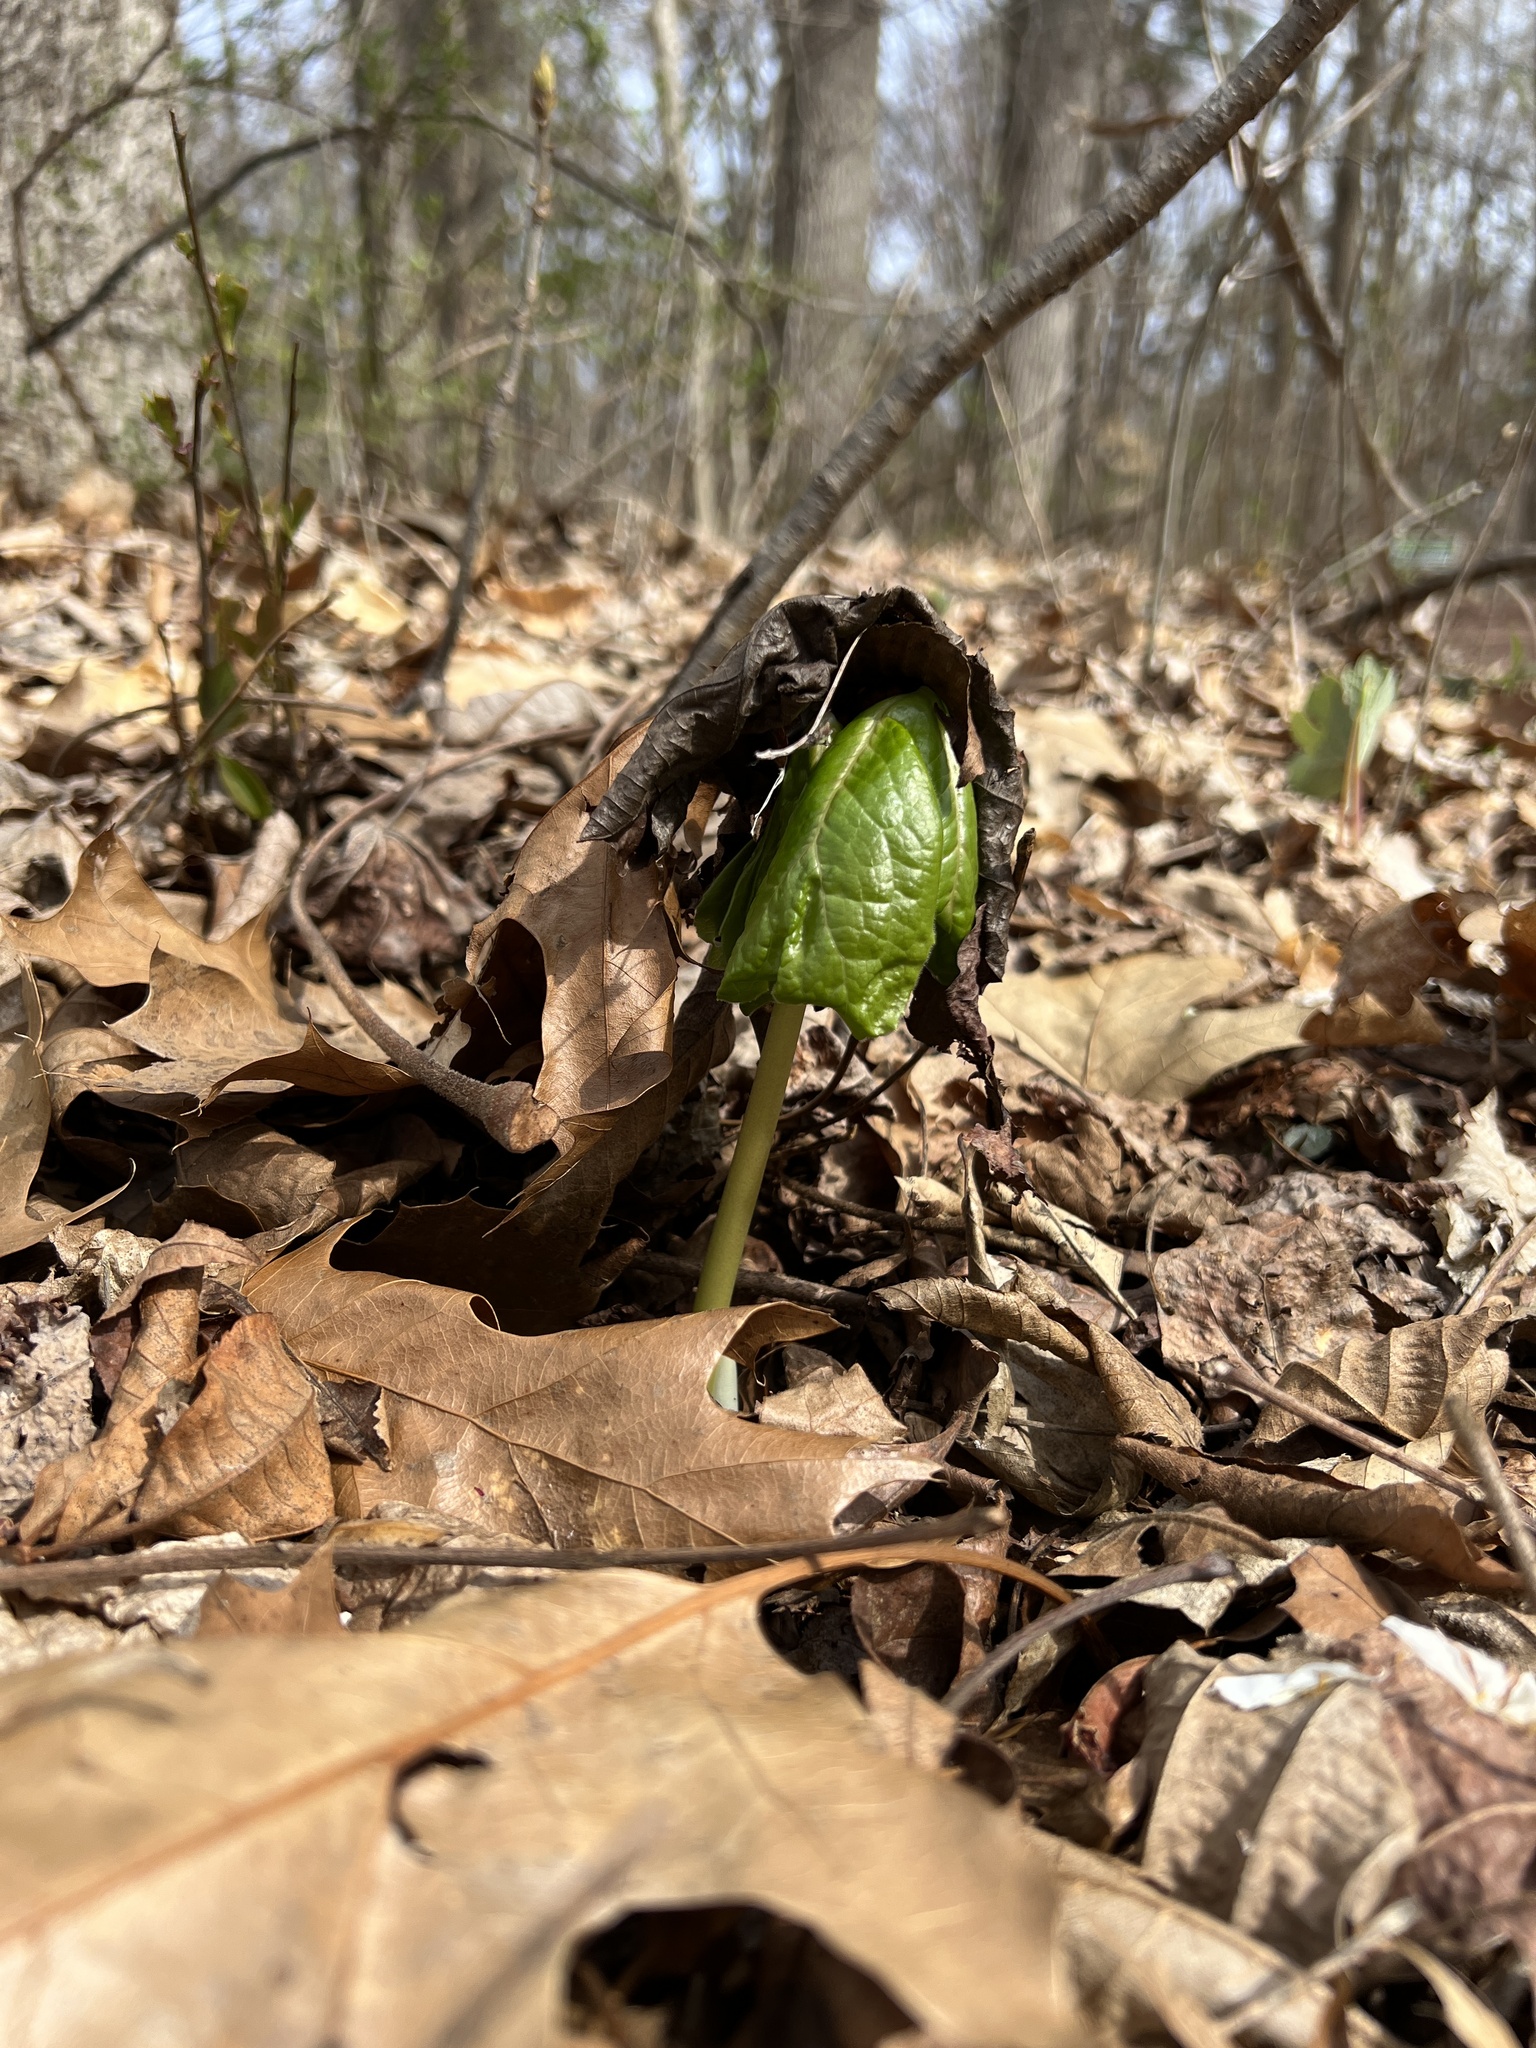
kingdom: Plantae
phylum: Tracheophyta
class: Magnoliopsida
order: Ranunculales
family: Berberidaceae
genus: Podophyllum
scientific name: Podophyllum peltatum
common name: Wild mandrake
